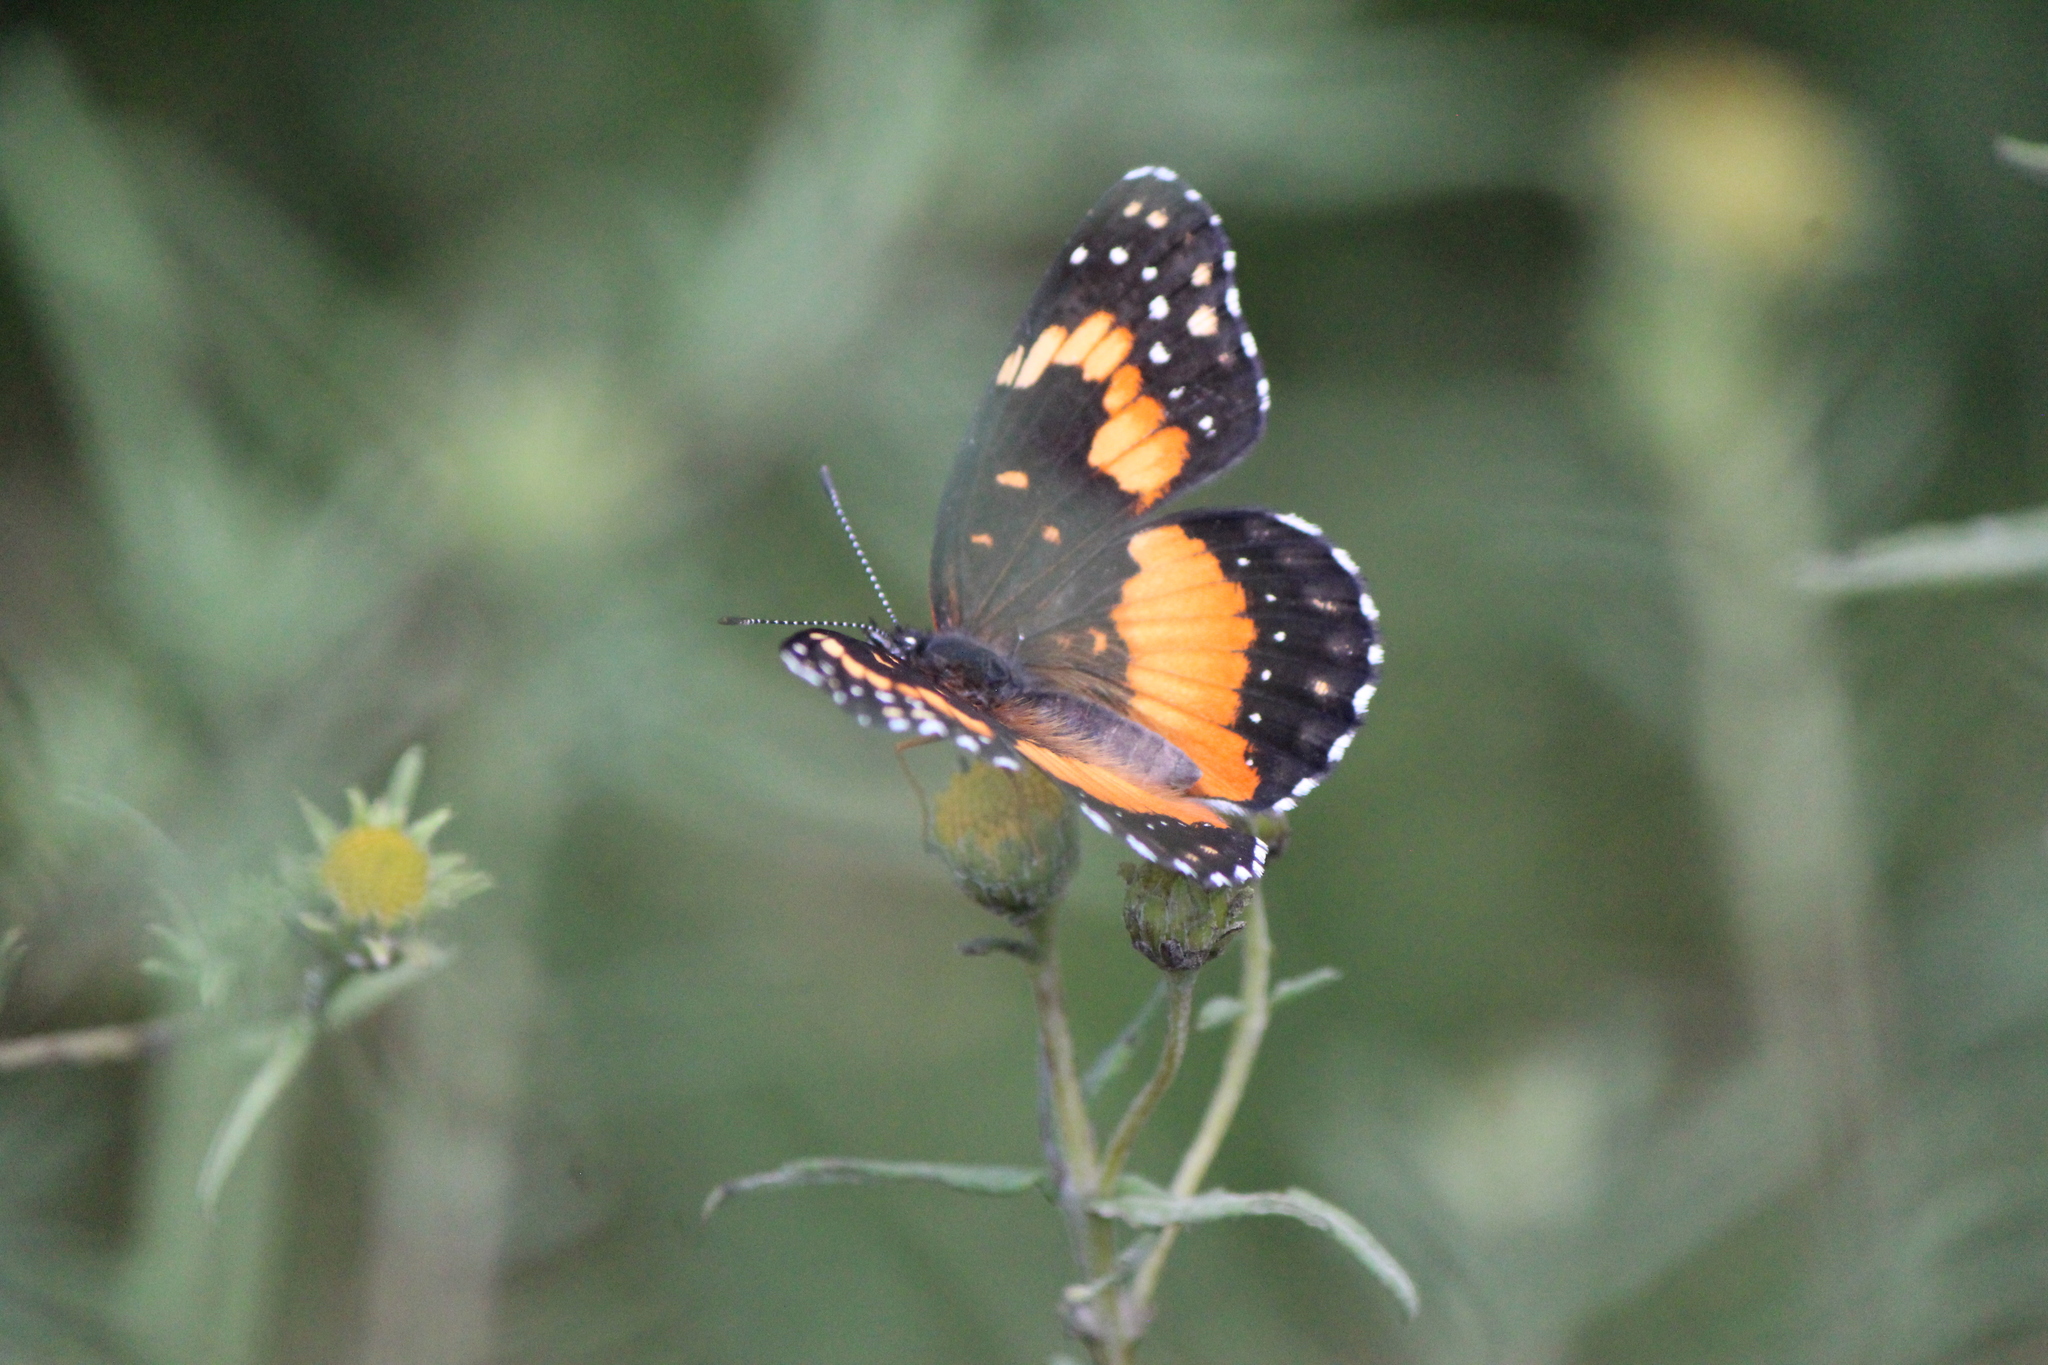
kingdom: Animalia
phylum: Arthropoda
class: Insecta
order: Lepidoptera
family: Nymphalidae
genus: Chlosyne
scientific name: Chlosyne lacinia
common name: Bordered patch
